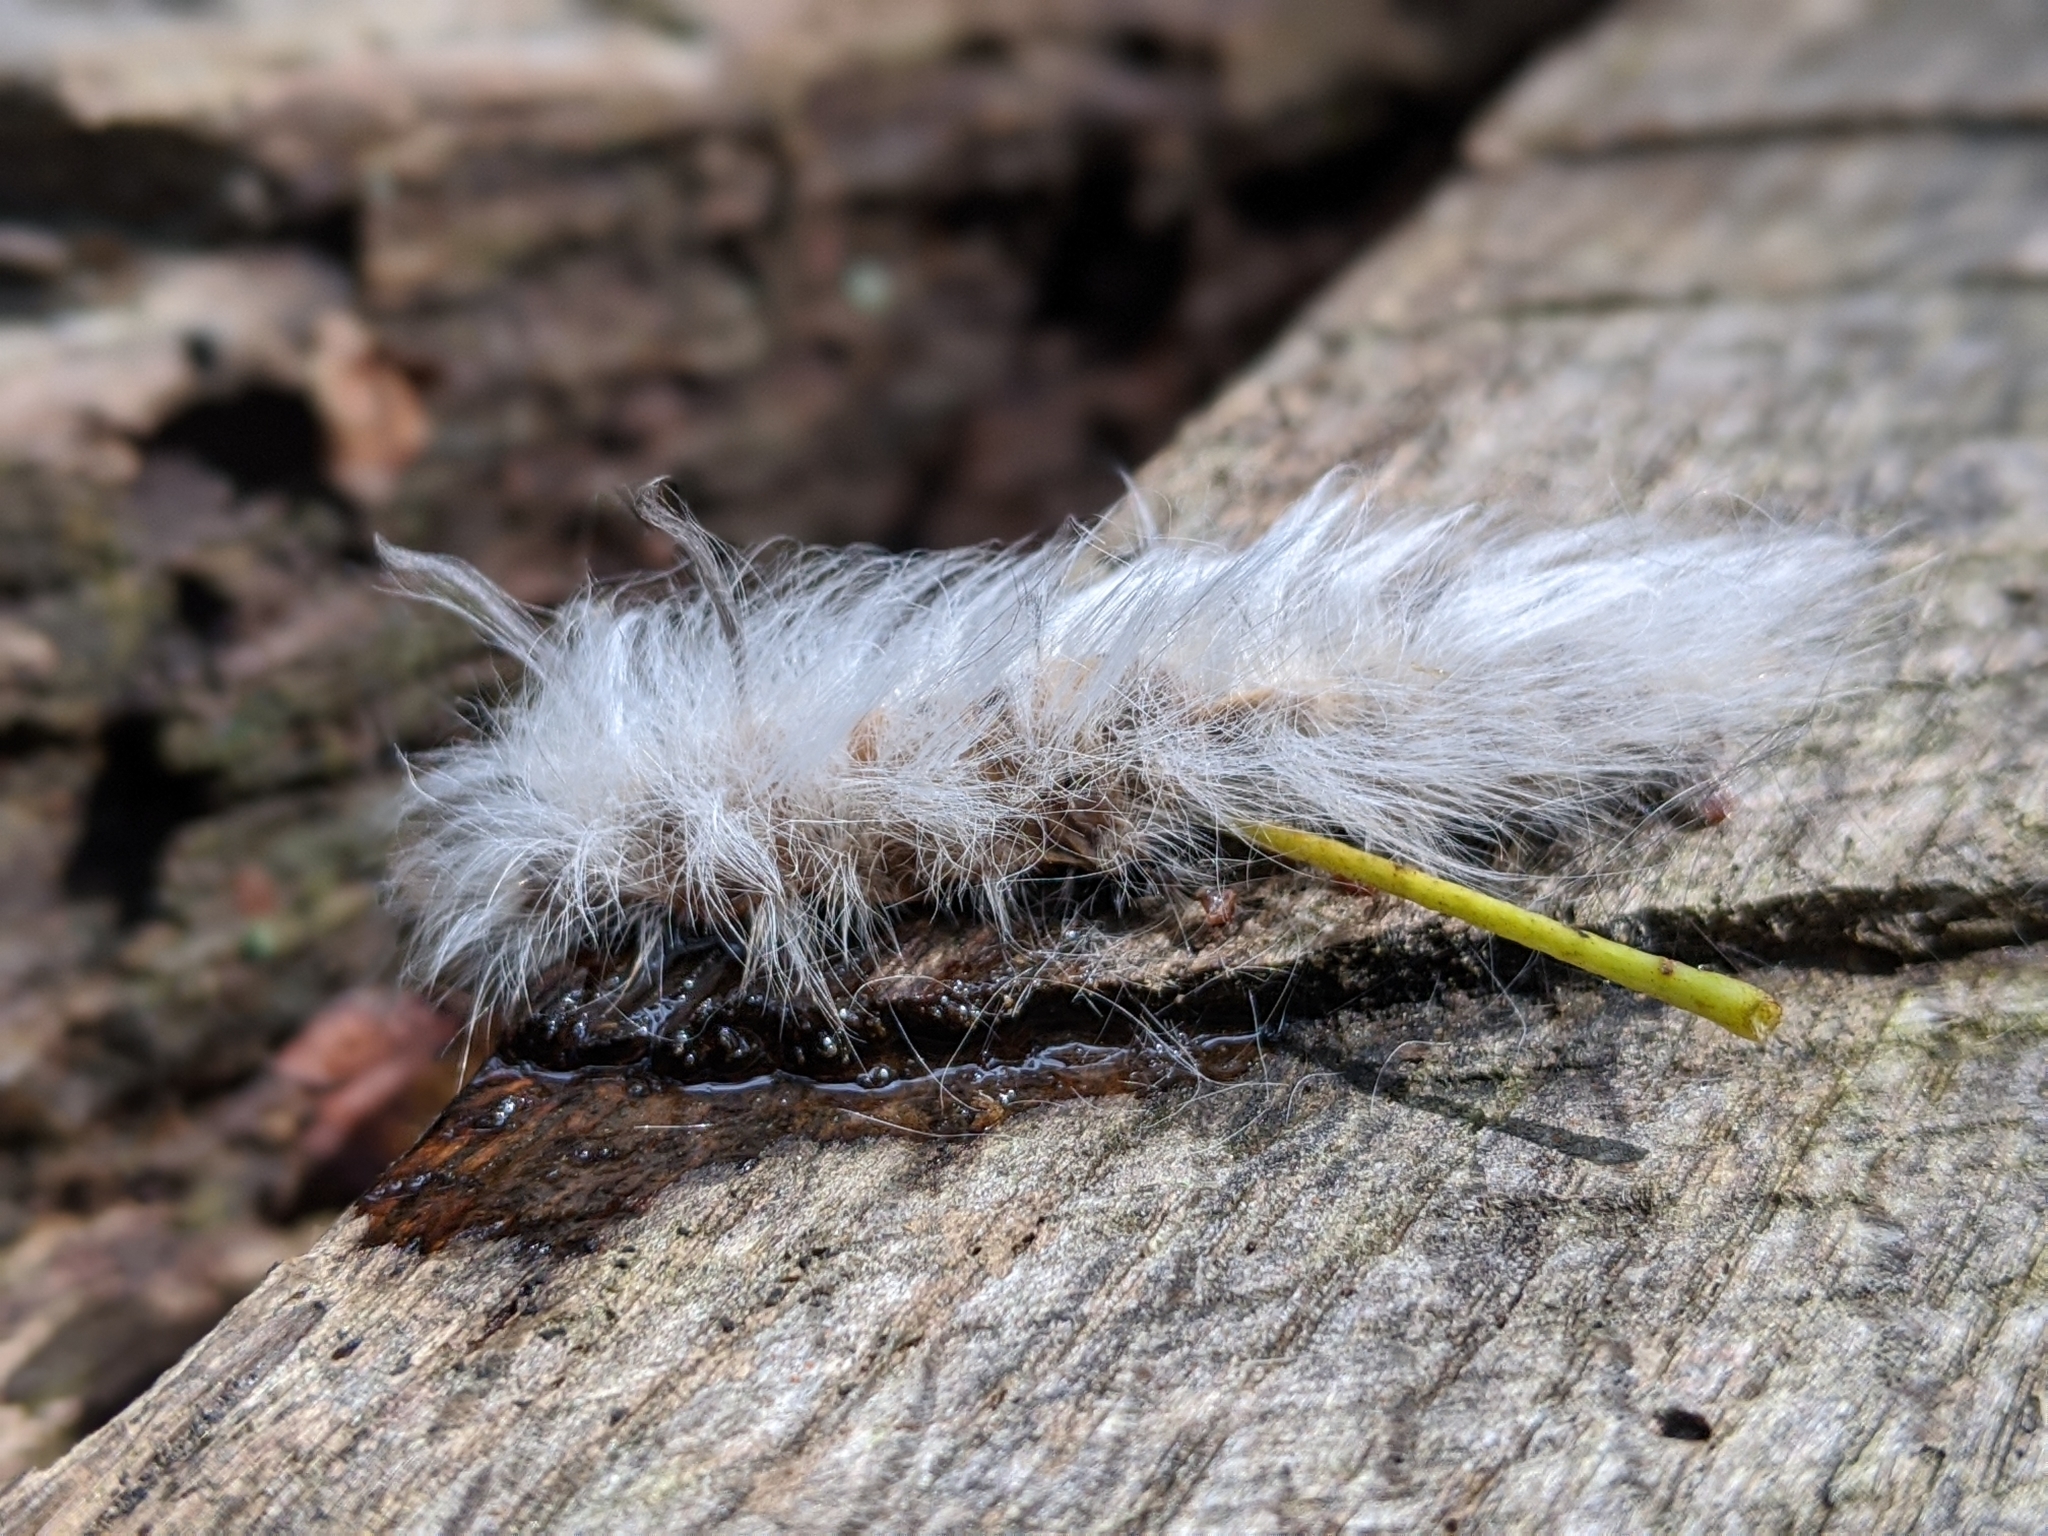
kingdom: Animalia
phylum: Arthropoda
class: Insecta
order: Lepidoptera
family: Apatelodidae
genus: Hygrochroa
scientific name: Hygrochroa Apatelodes torrefacta
